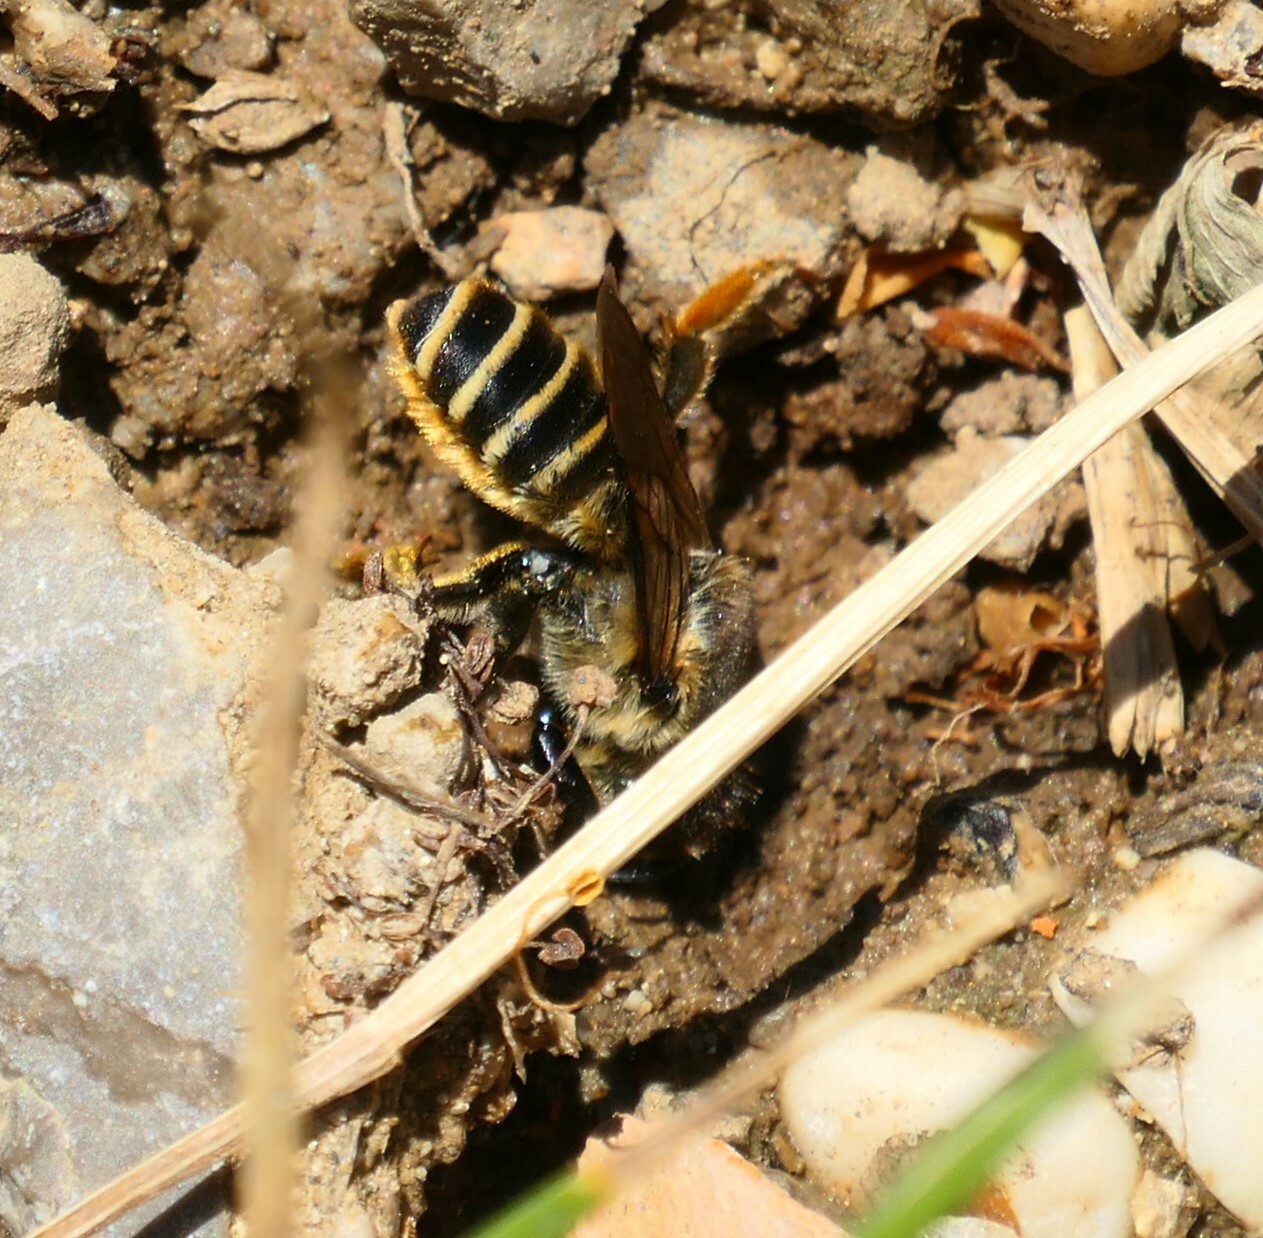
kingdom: Animalia
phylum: Arthropoda
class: Insecta
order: Hymenoptera
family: Megachilidae
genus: Megachile
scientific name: Megachile ericetorum
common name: Leafcutter bee
